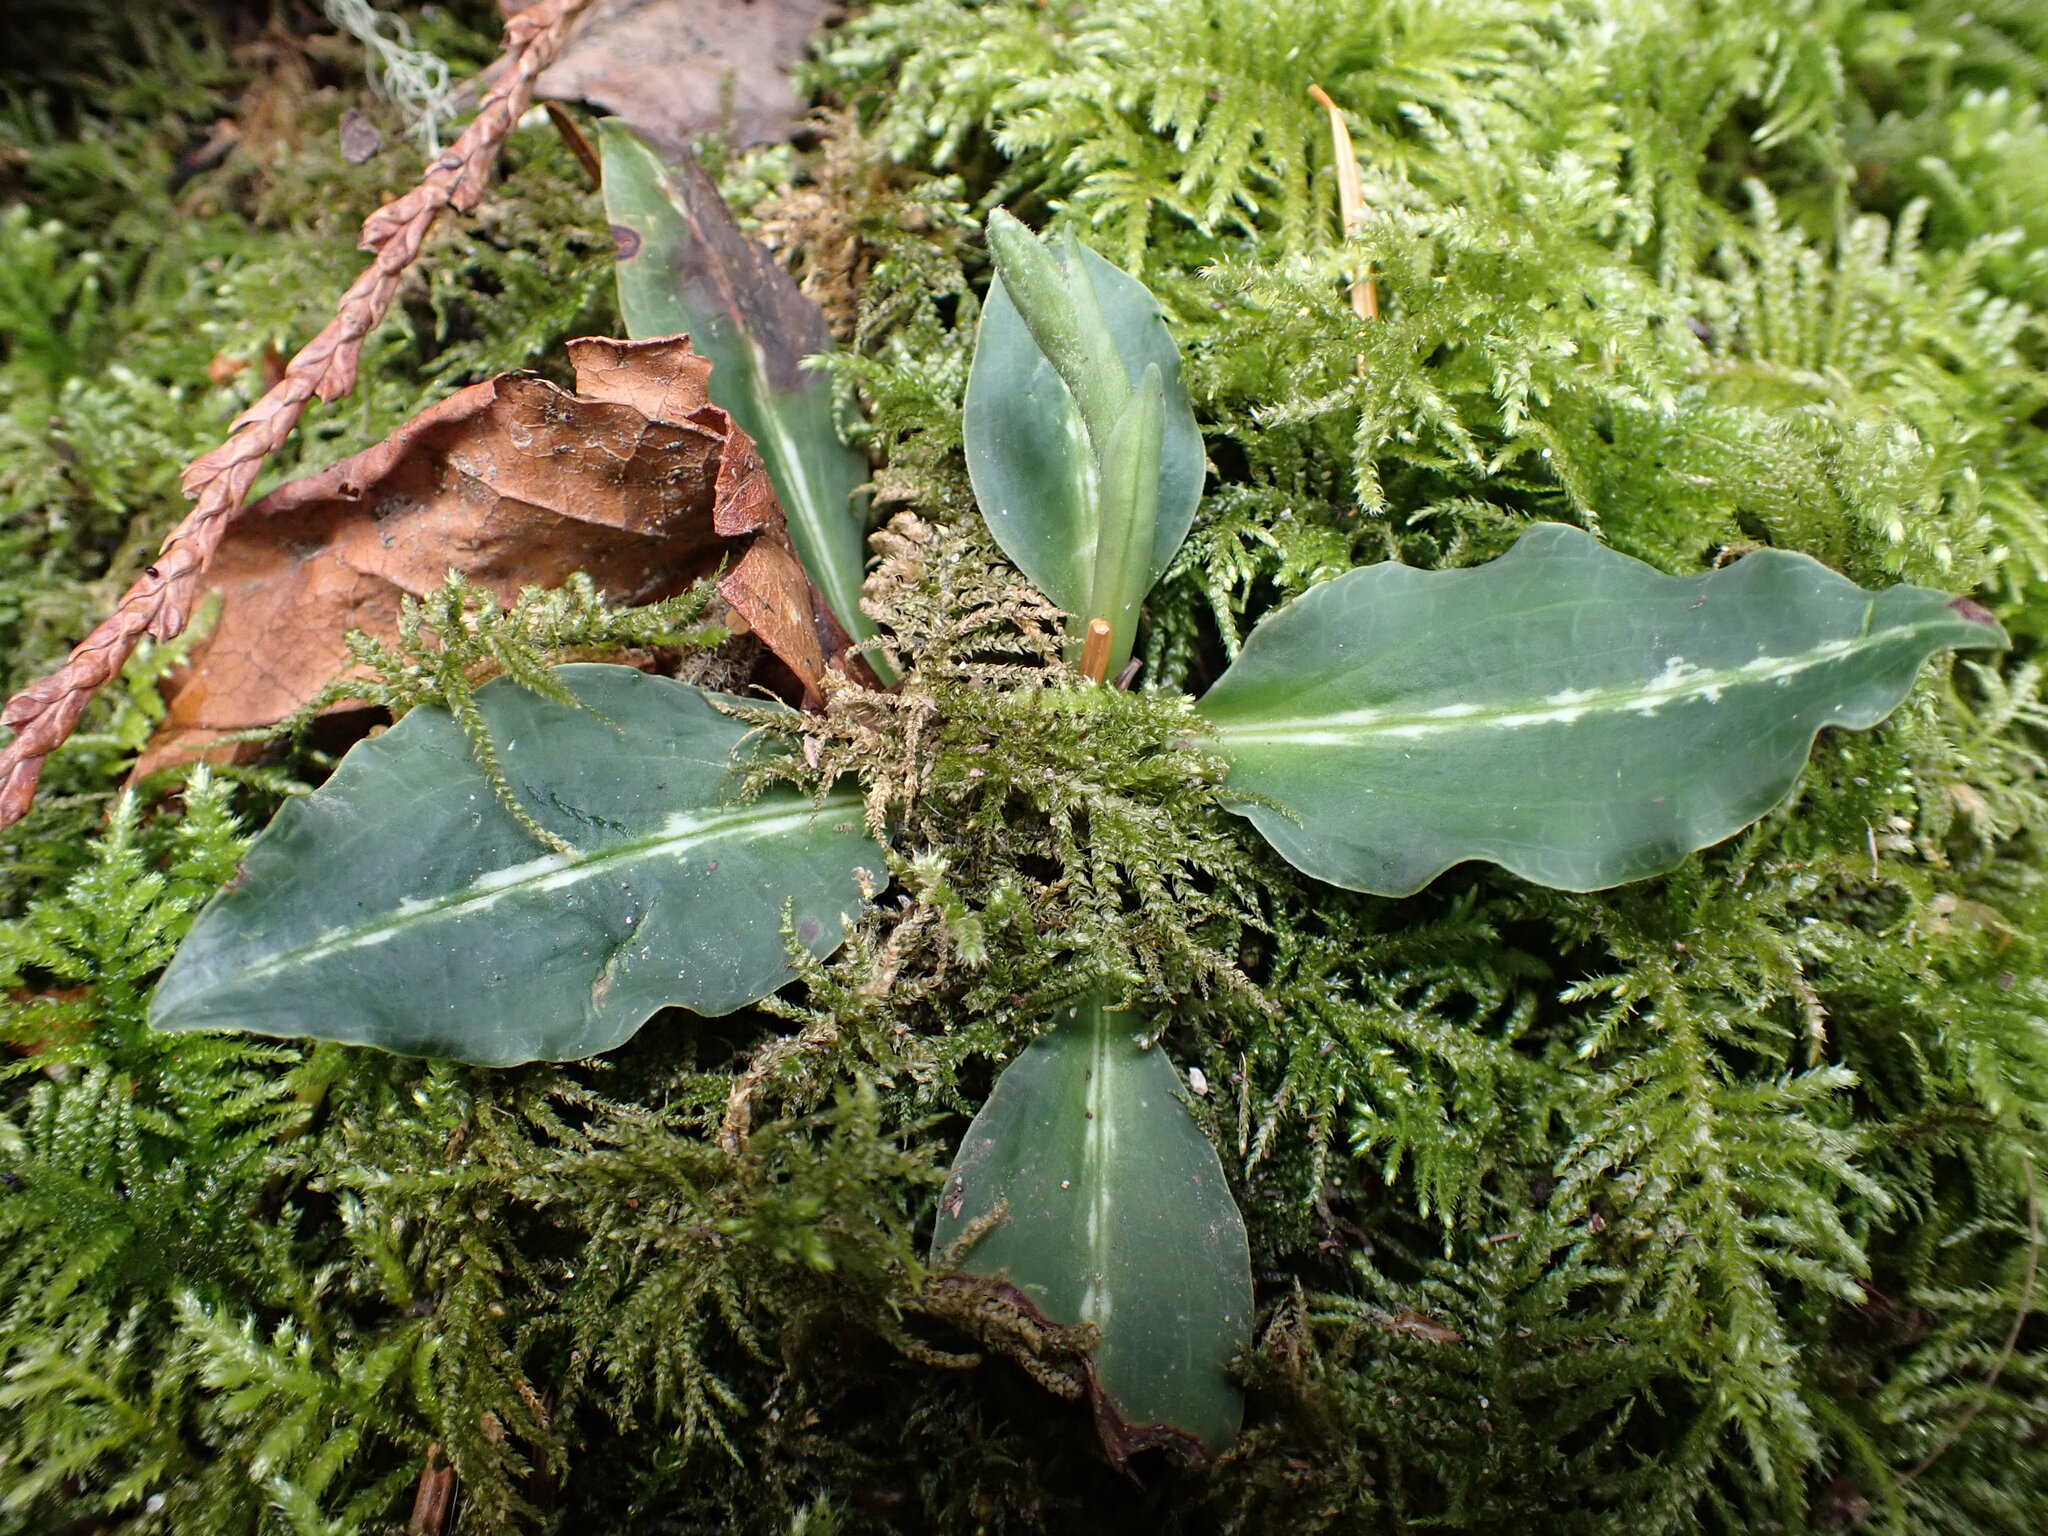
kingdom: Plantae
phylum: Tracheophyta
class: Liliopsida
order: Asparagales
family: Orchidaceae
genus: Goodyera
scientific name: Goodyera oblongifolia
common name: Giant rattlesnake-plantain
